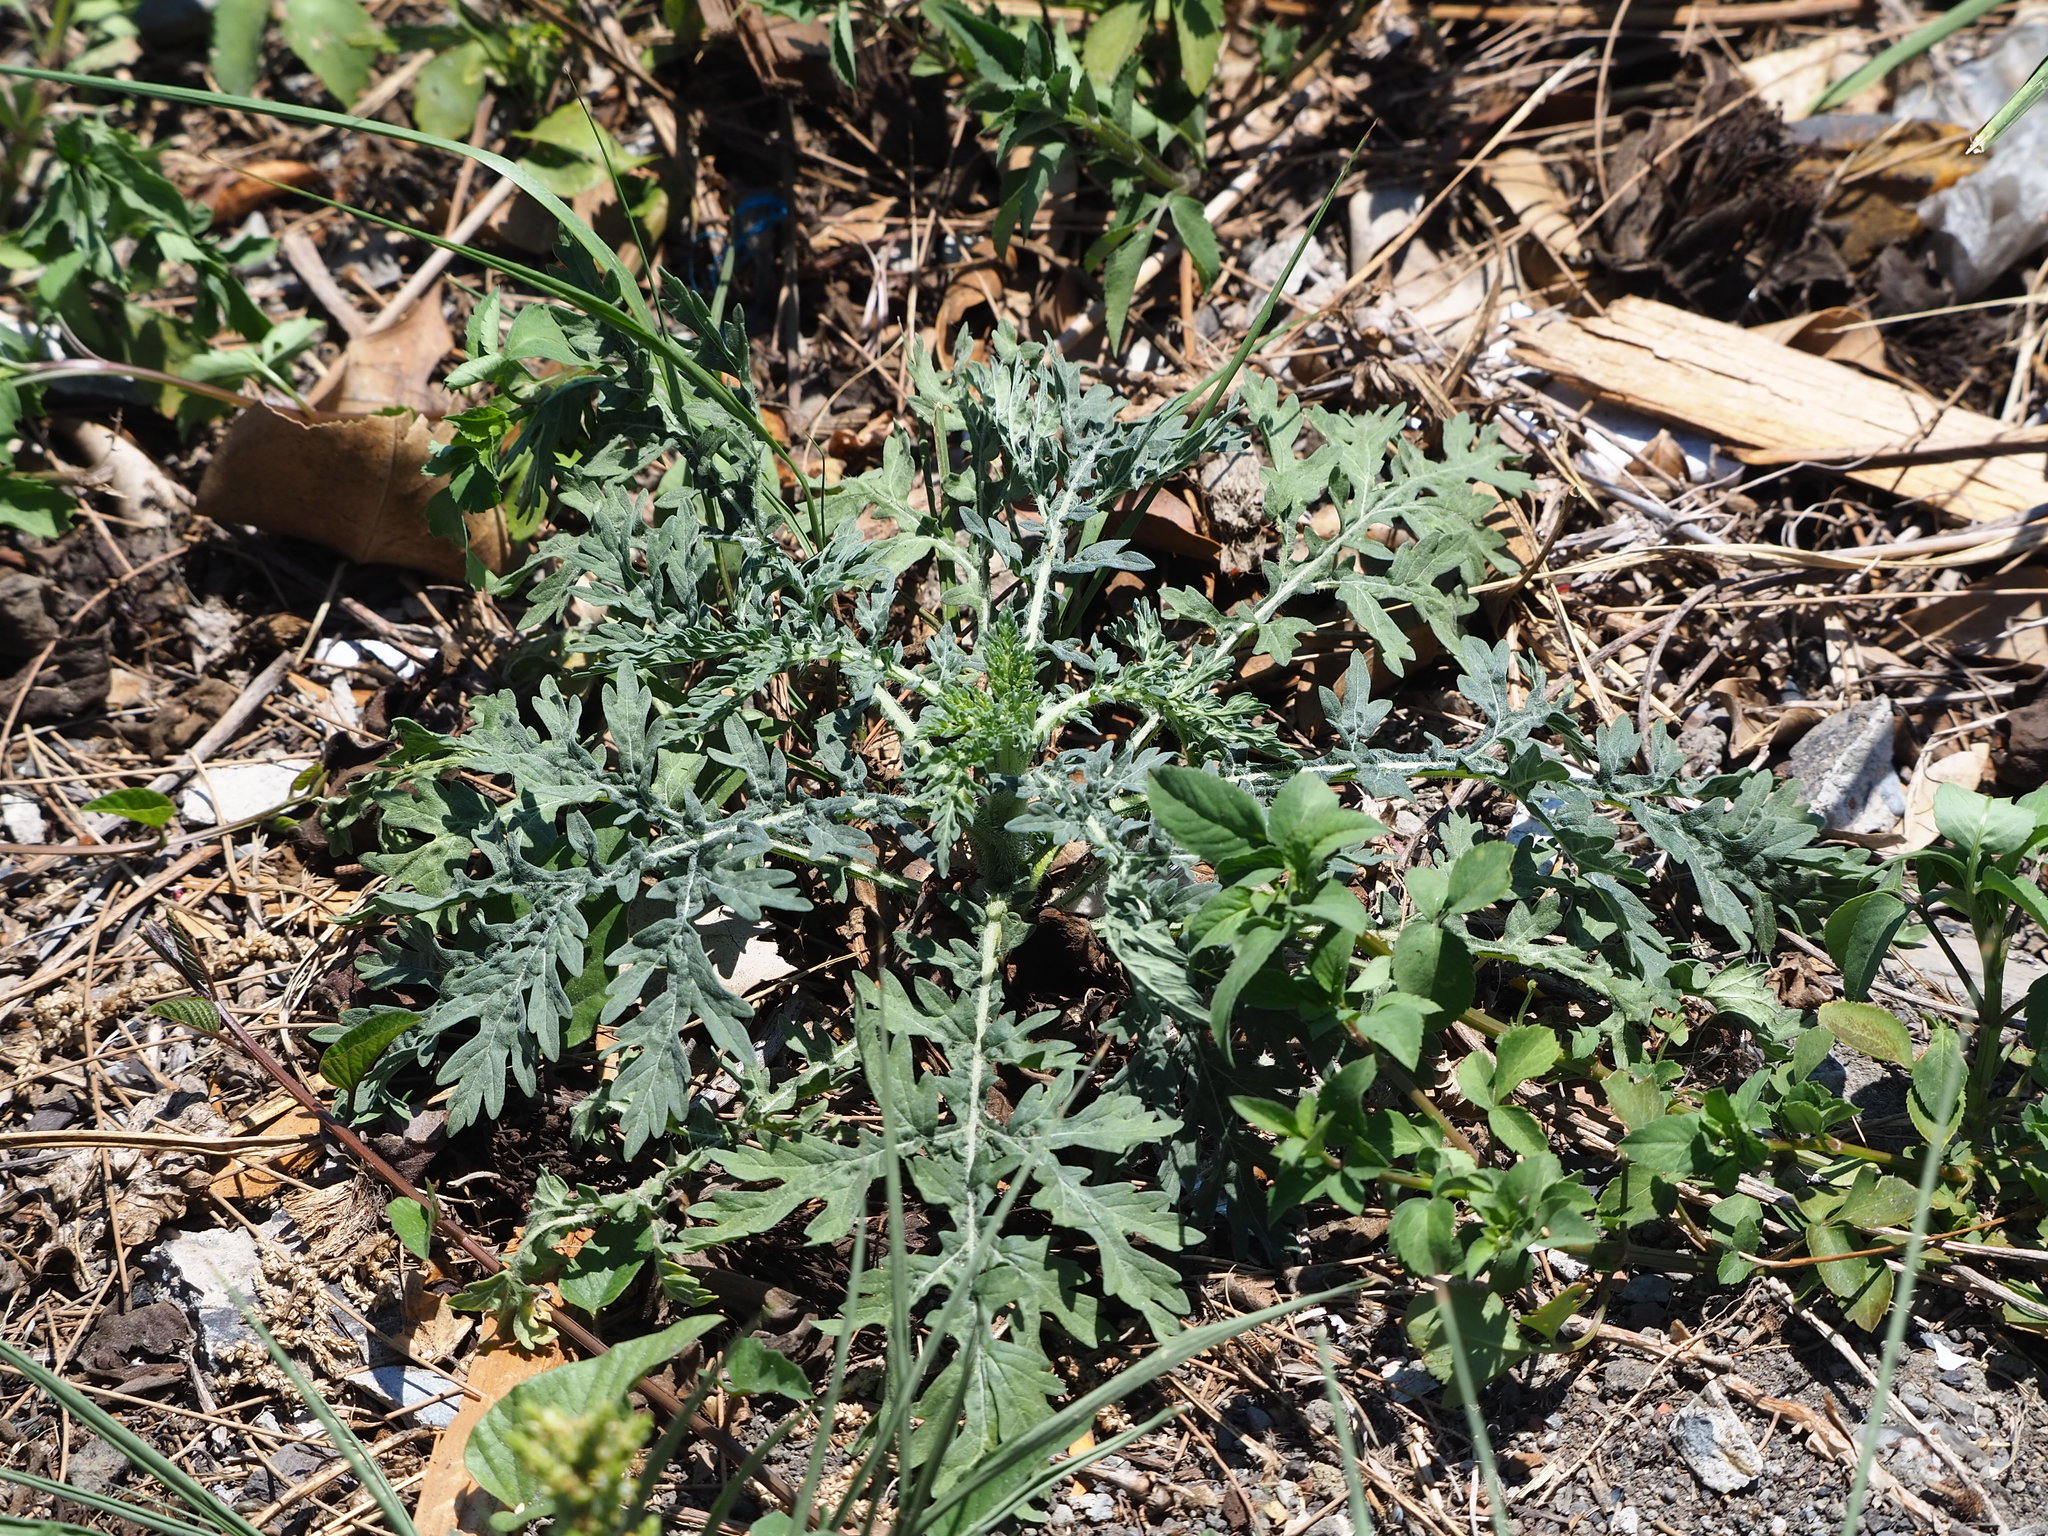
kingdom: Plantae
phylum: Tracheophyta
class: Magnoliopsida
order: Asterales
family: Asteraceae
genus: Parthenium
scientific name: Parthenium hysterophorus
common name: Santa maria feverfew
